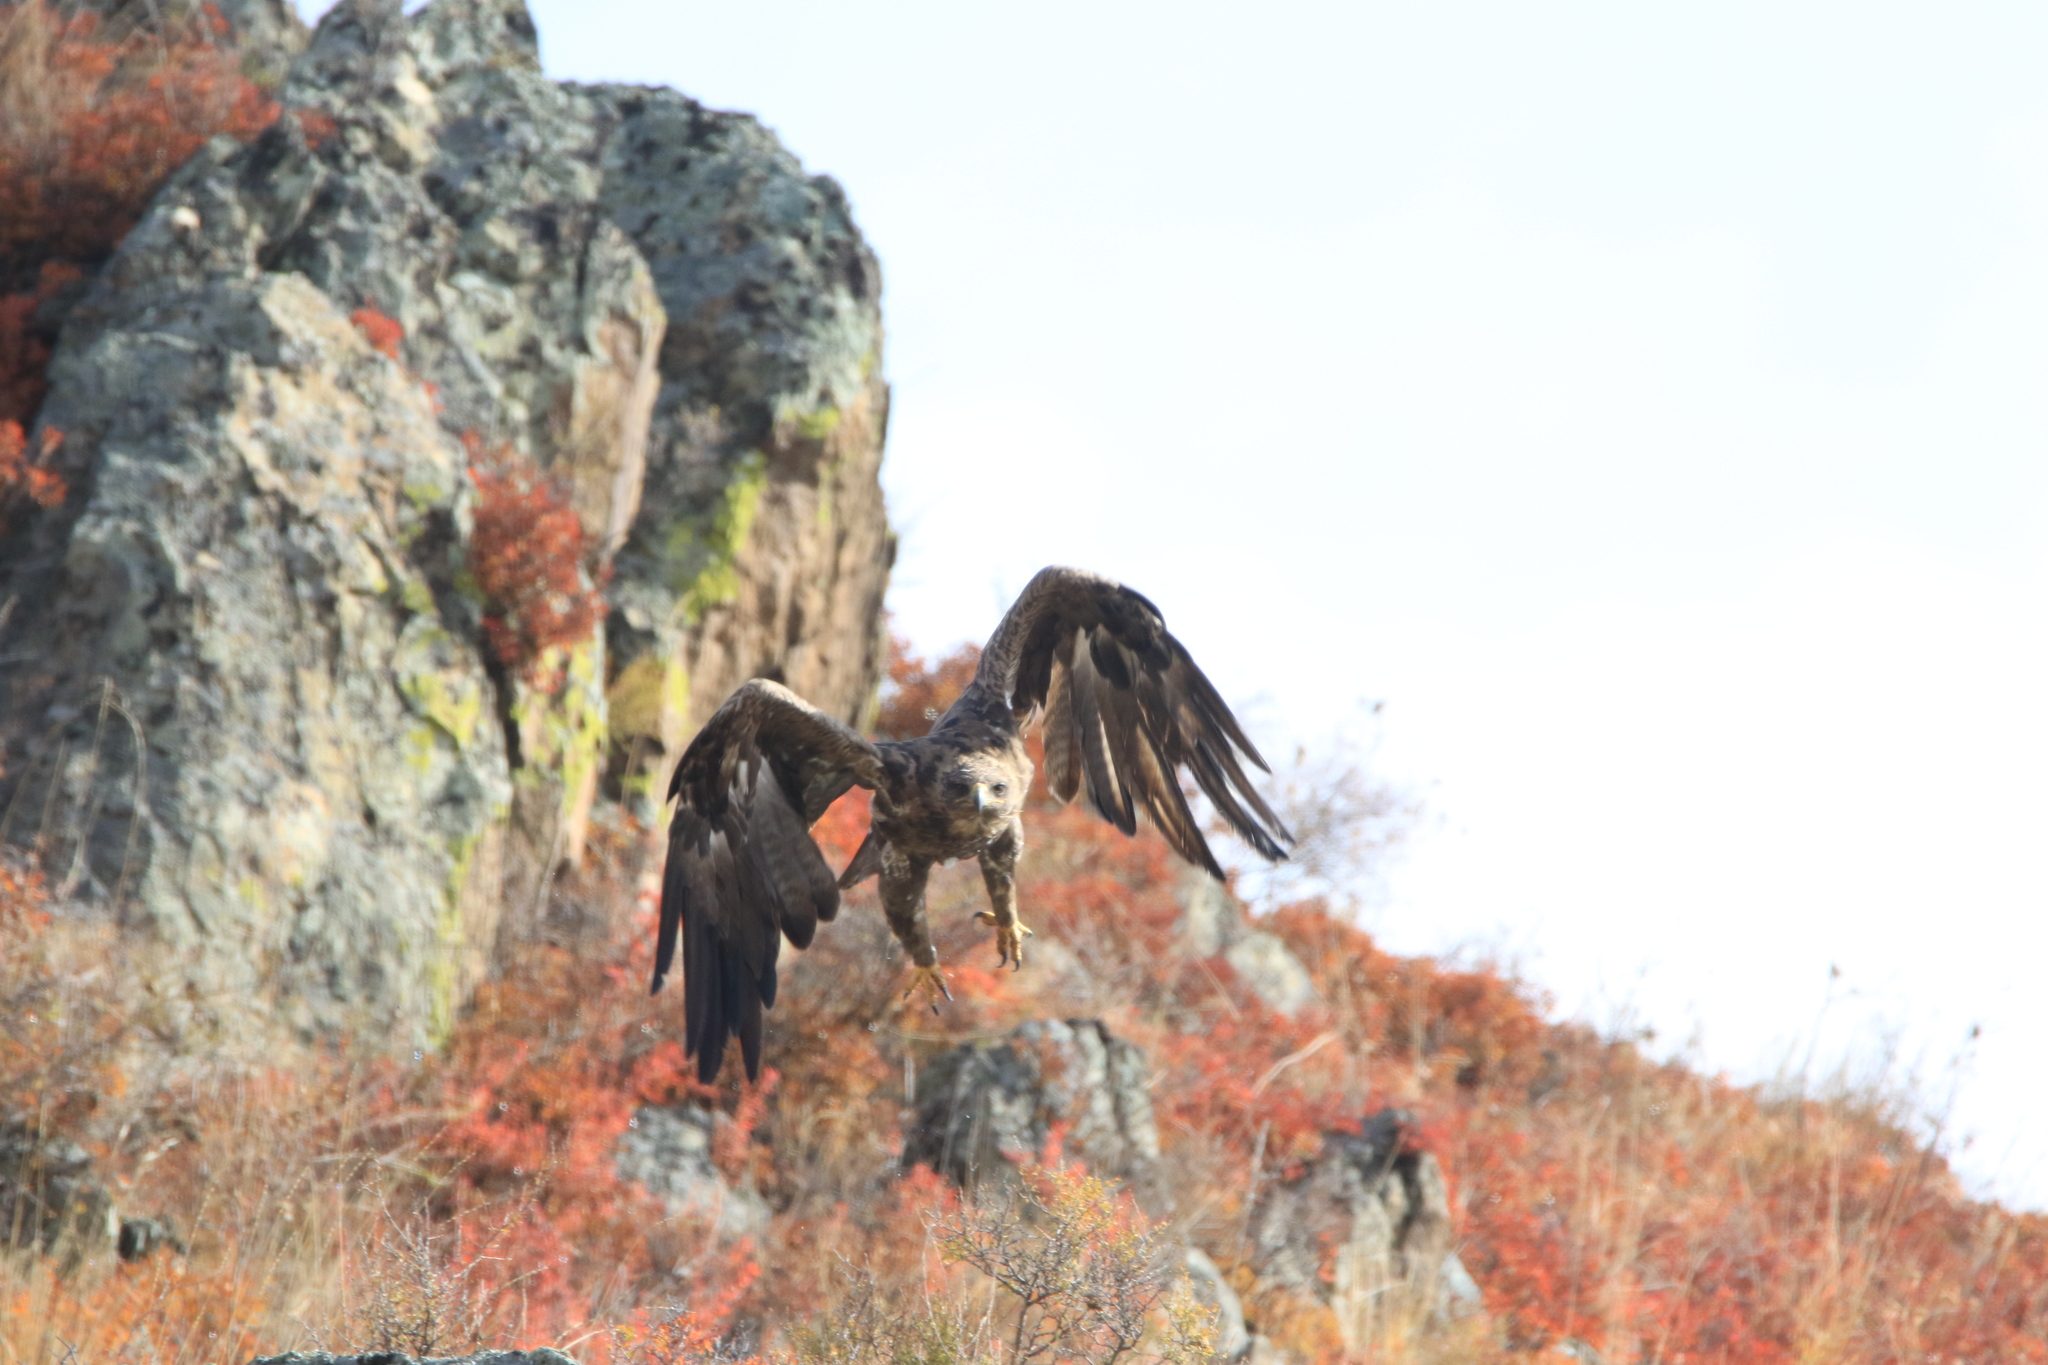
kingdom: Animalia
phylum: Chordata
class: Aves
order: Accipitriformes
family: Accipitridae
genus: Aquila
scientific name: Aquila nipalensis
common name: Steppe eagle
